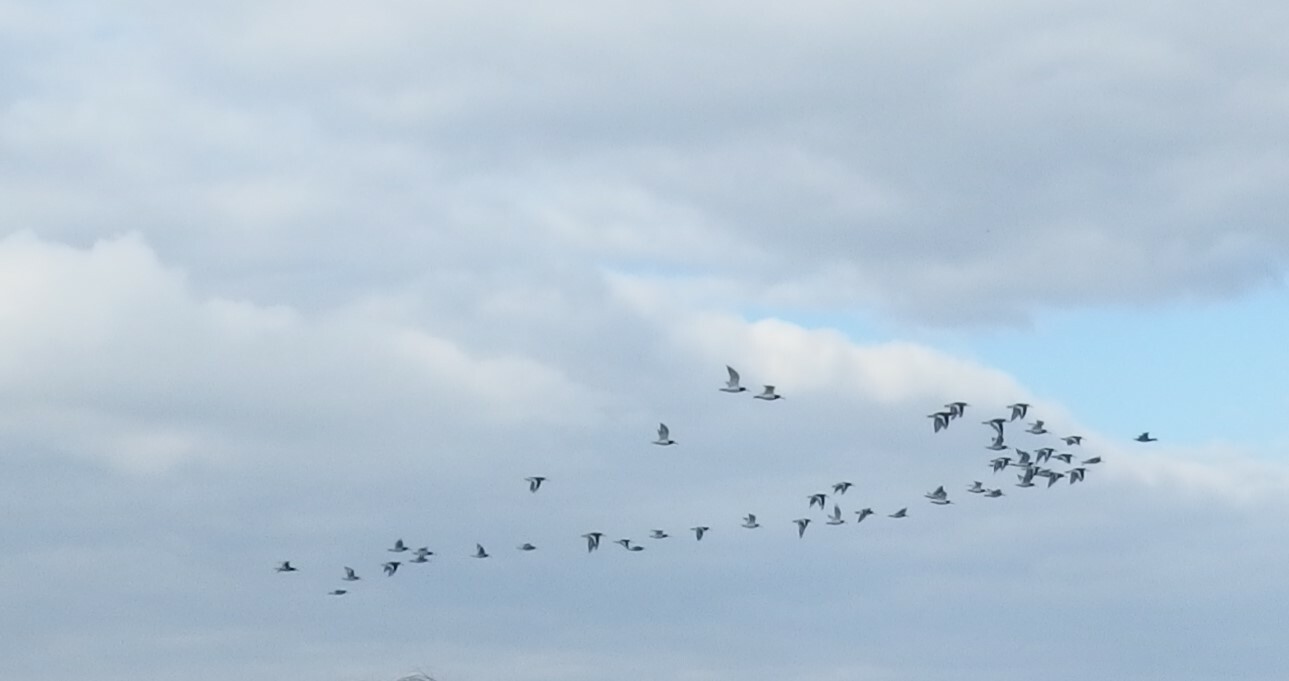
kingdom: Animalia
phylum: Chordata
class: Aves
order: Charadriiformes
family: Haematopodidae
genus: Haematopus
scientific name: Haematopus ostralegus
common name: Eurasian oystercatcher
